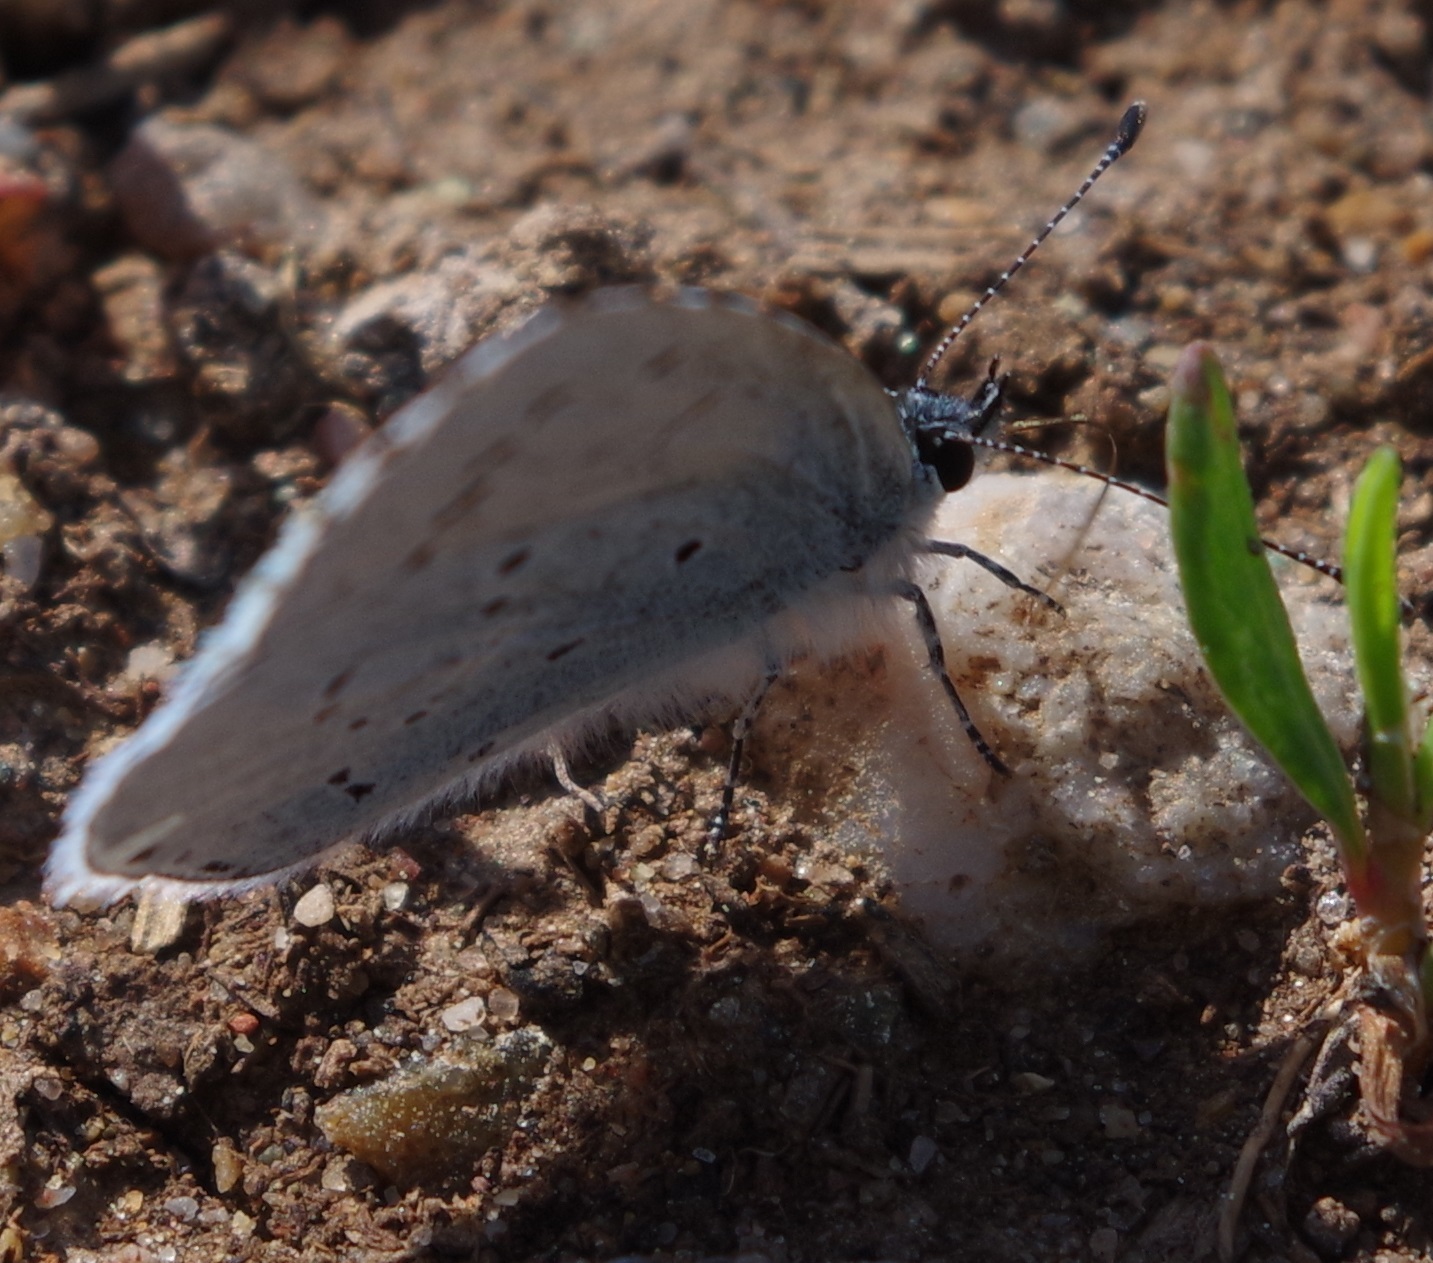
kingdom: Animalia
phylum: Arthropoda
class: Insecta
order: Lepidoptera
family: Lycaenidae
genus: Celastrina
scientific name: Celastrina argiolus
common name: Holly blue
